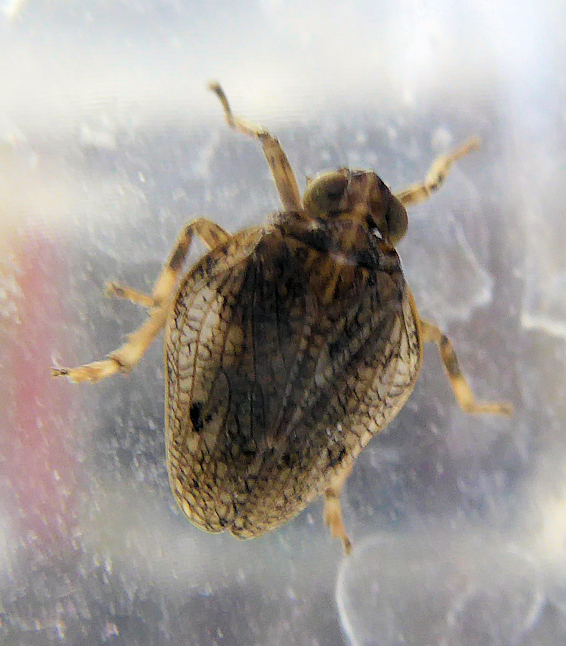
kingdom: Animalia
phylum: Arthropoda
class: Insecta
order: Hemiptera
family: Issidae
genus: Issus
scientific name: Issus coleoptratus
